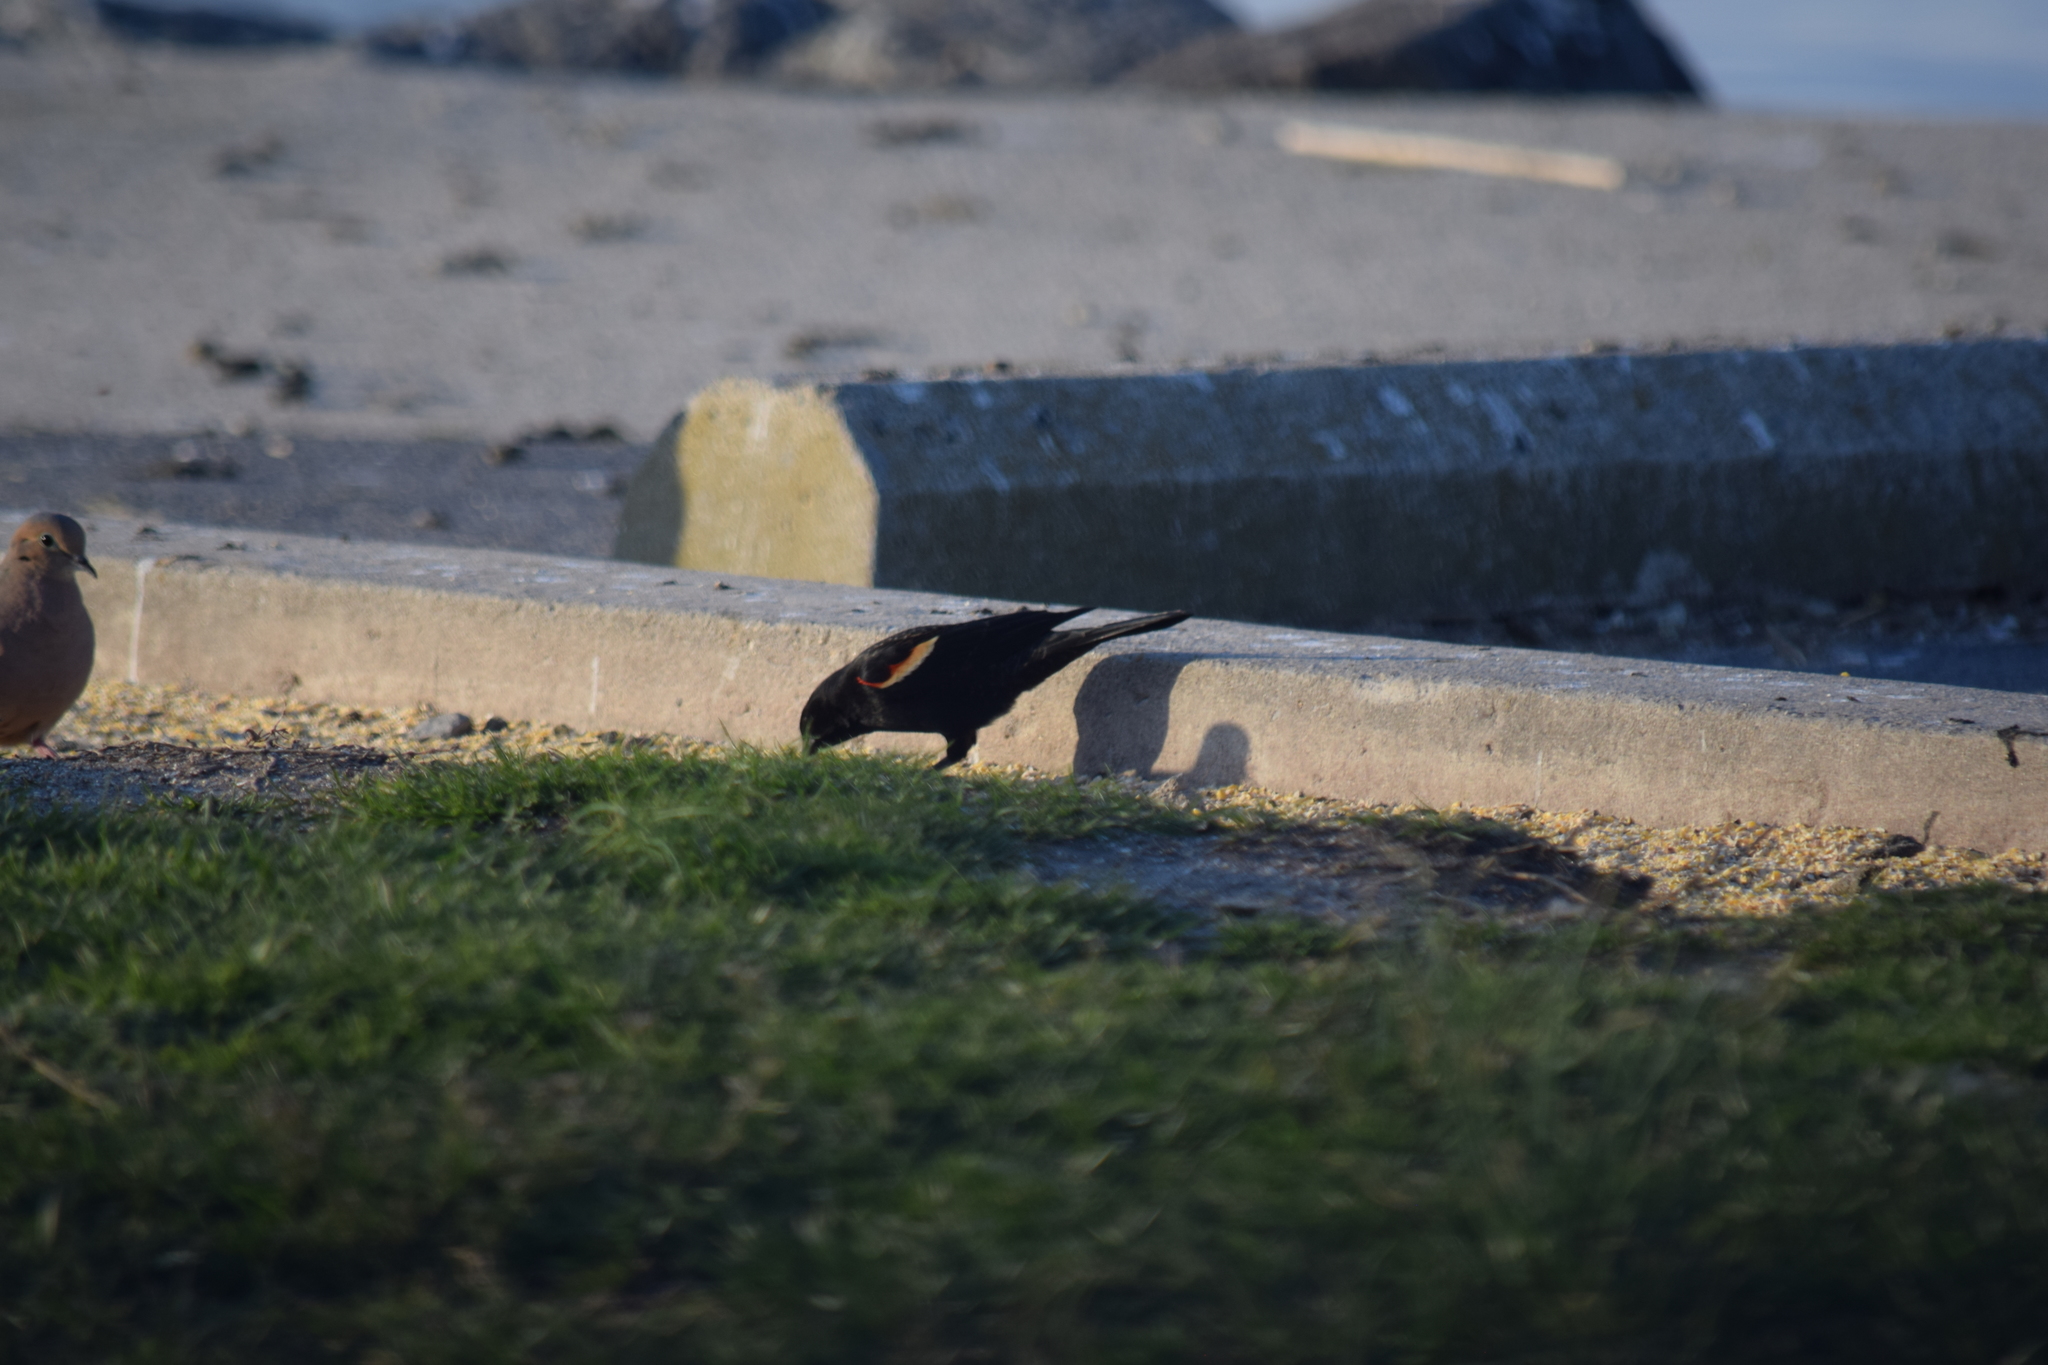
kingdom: Animalia
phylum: Chordata
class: Aves
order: Passeriformes
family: Icteridae
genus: Agelaius
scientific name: Agelaius phoeniceus
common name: Red-winged blackbird
